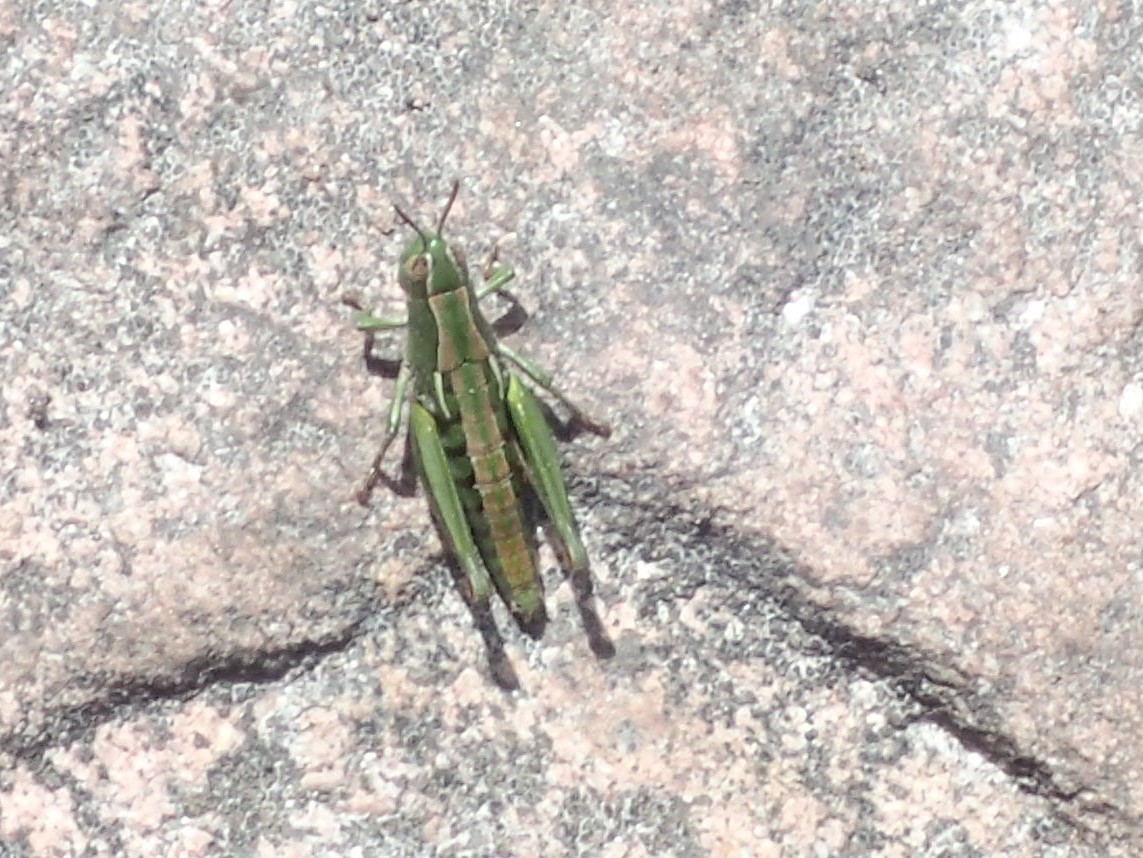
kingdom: Animalia
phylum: Arthropoda
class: Insecta
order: Orthoptera
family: Acrididae
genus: Russalpia
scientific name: Russalpia albertisi
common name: Tassie hopper
